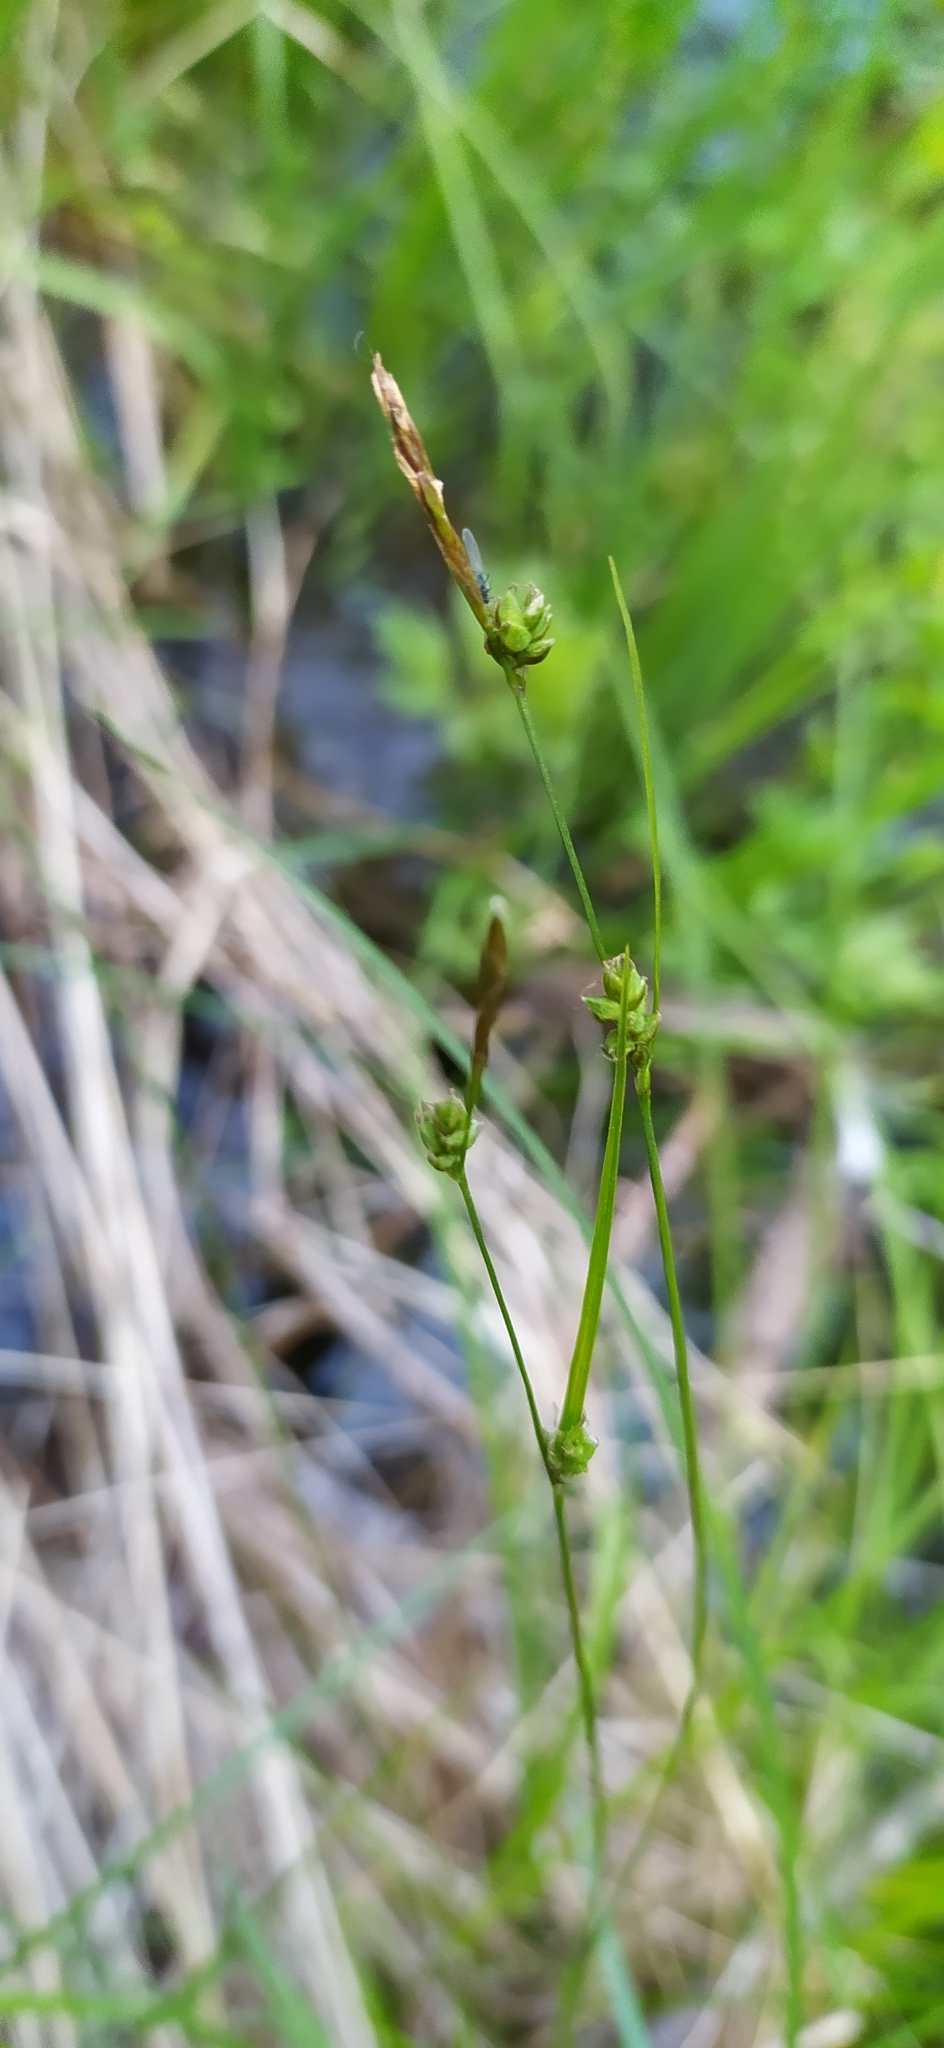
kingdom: Plantae
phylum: Tracheophyta
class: Liliopsida
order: Poales
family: Cyperaceae
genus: Carex
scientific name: Carex globularis
